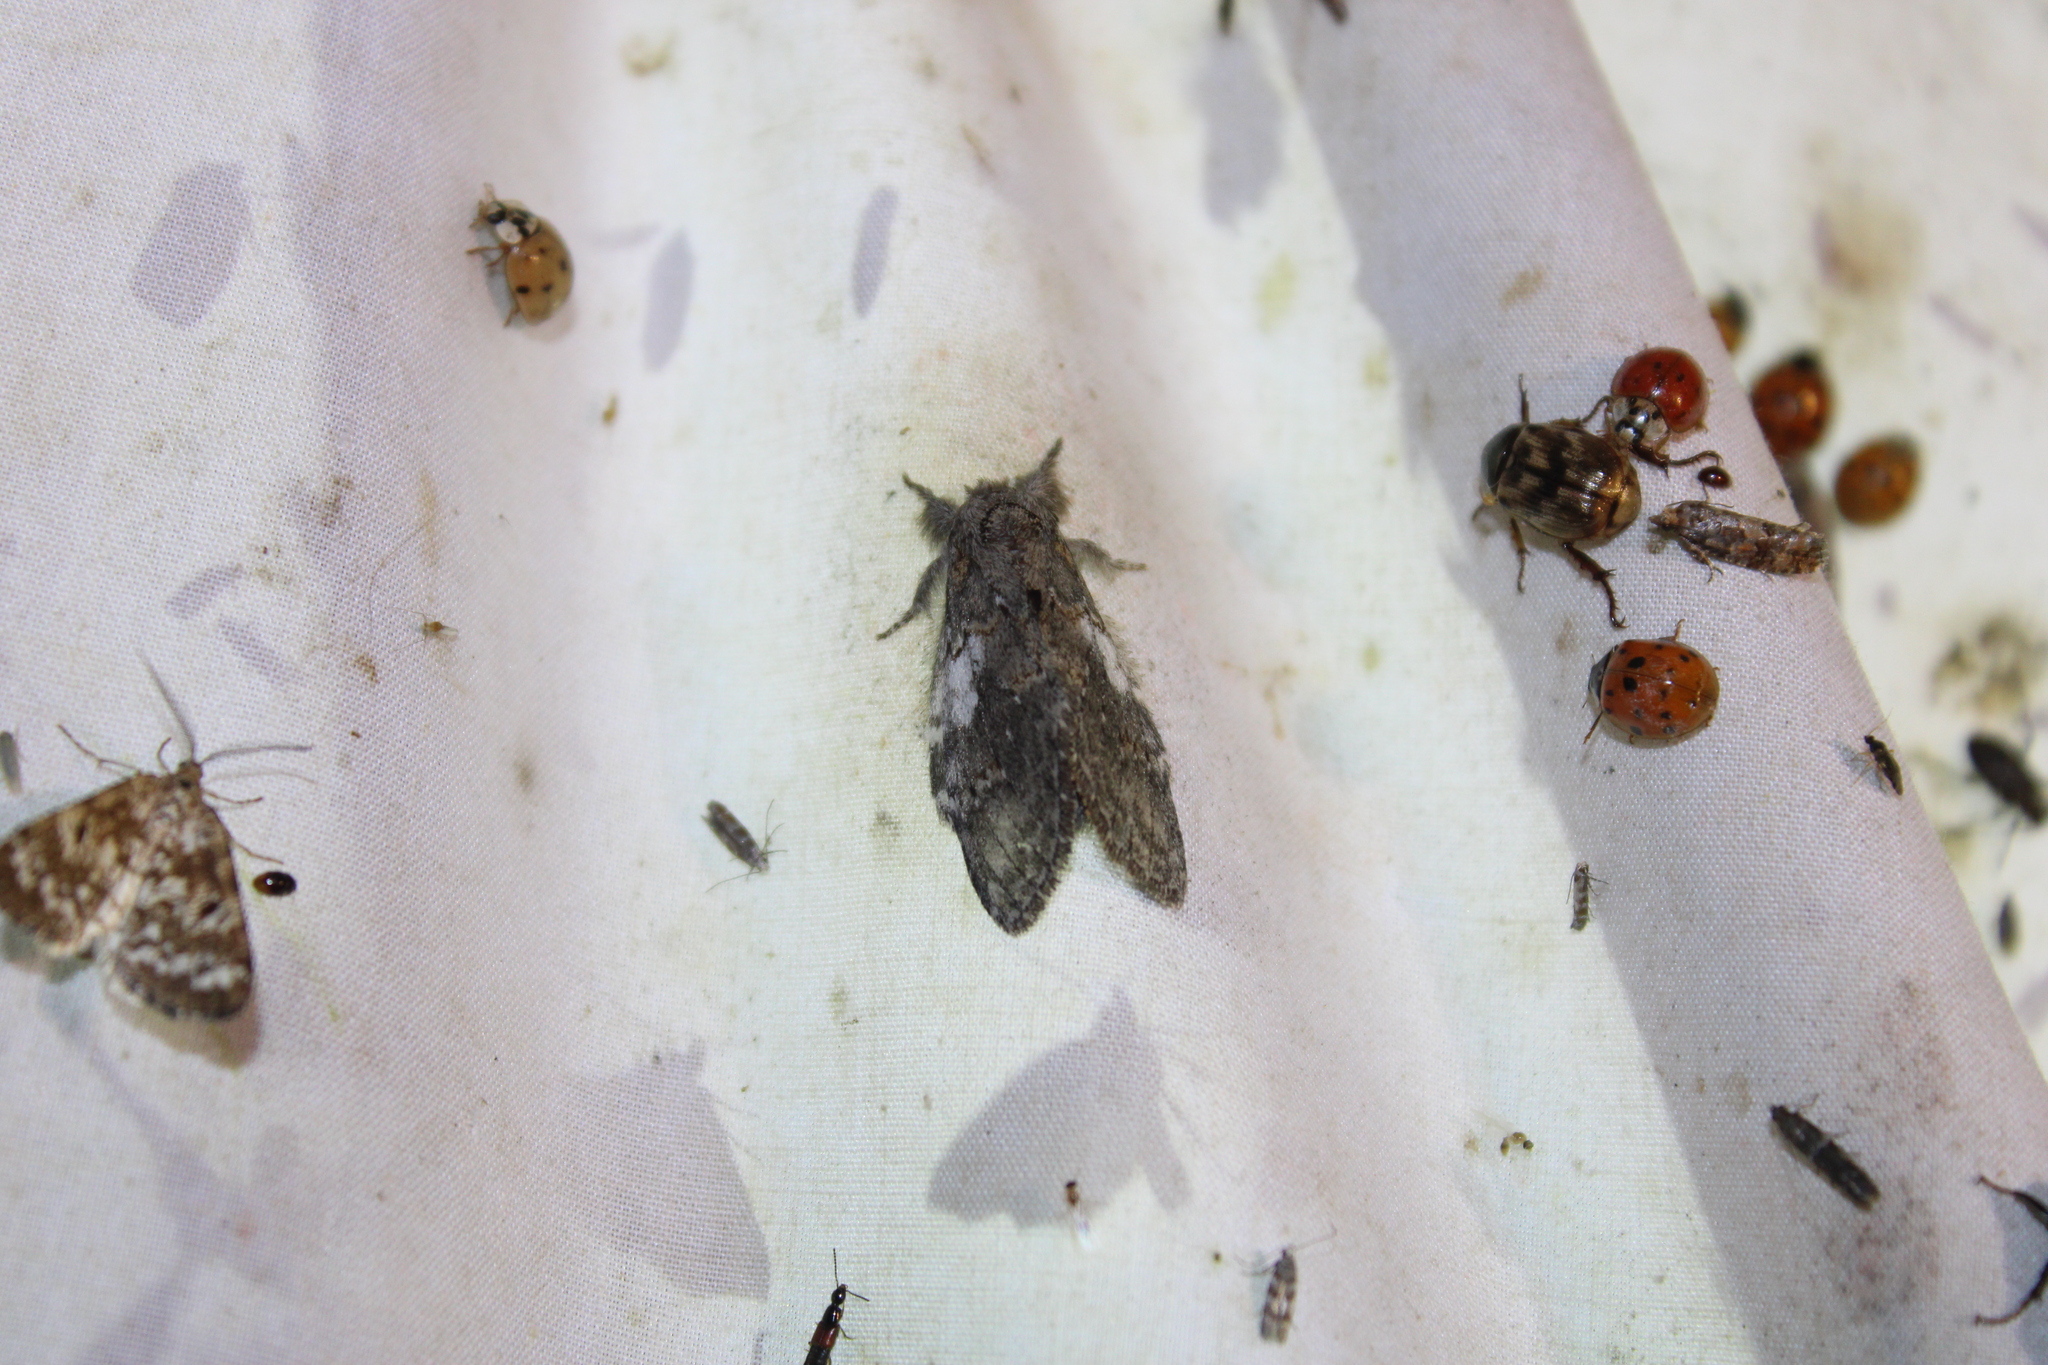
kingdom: Animalia
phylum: Arthropoda
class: Insecta
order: Lepidoptera
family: Notodontidae
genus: Peridea
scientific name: Peridea angulosa
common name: Angulose prominent
